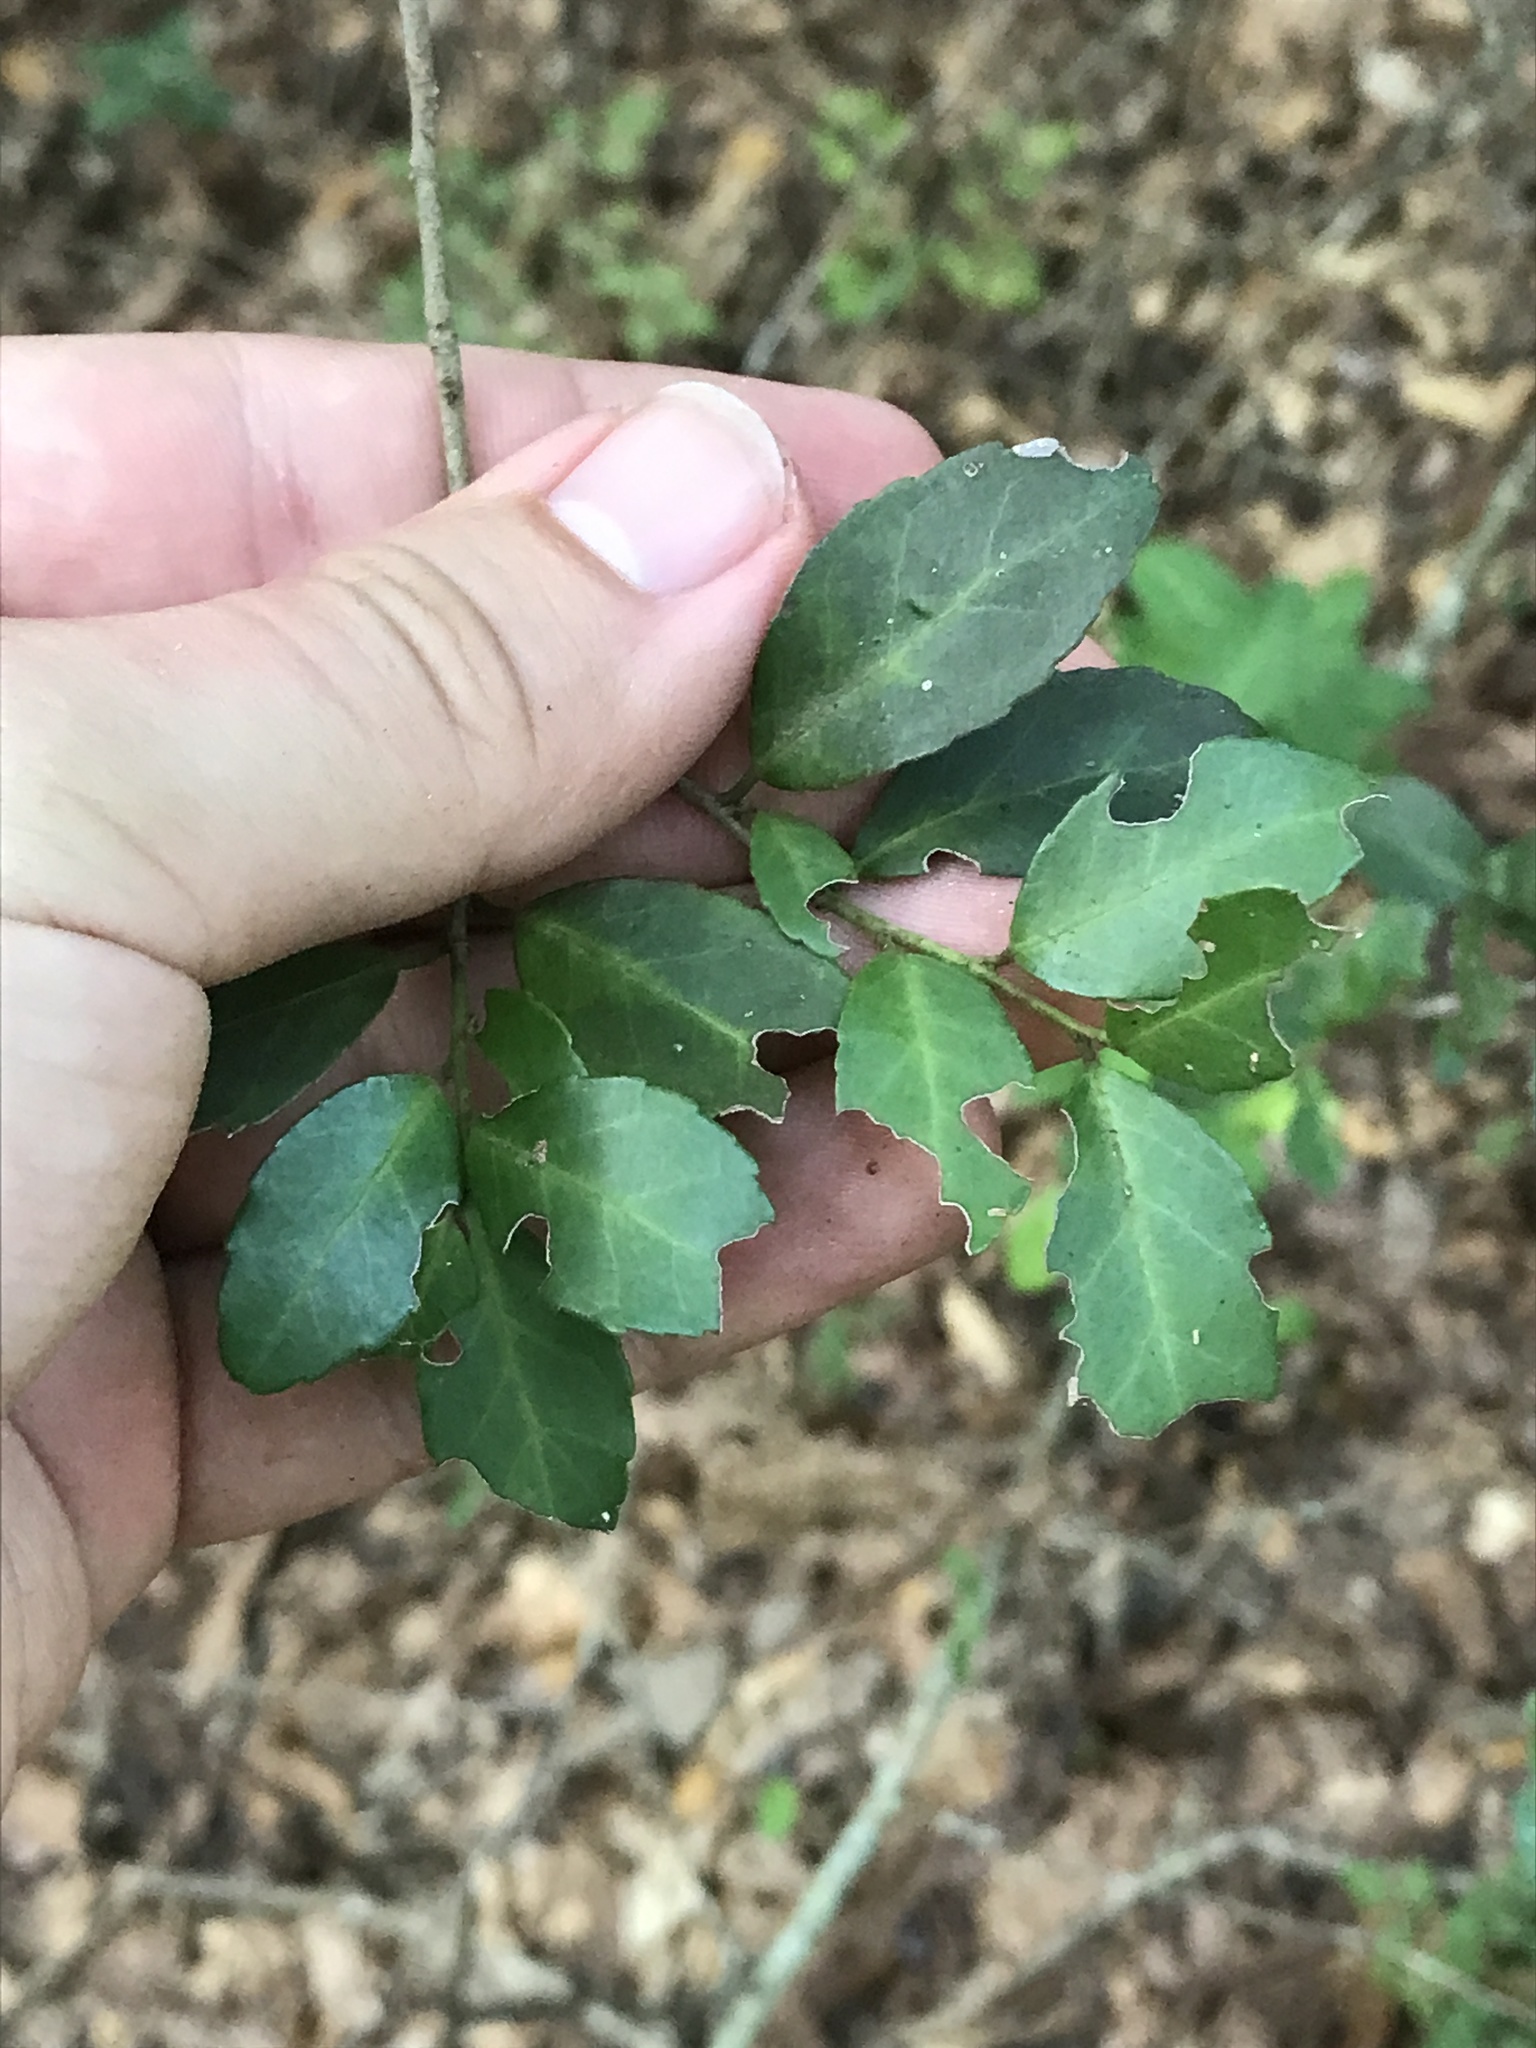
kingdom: Plantae
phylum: Tracheophyta
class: Magnoliopsida
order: Aquifoliales
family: Aquifoliaceae
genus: Ilex
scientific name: Ilex vomitoria
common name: Yaupon holly
